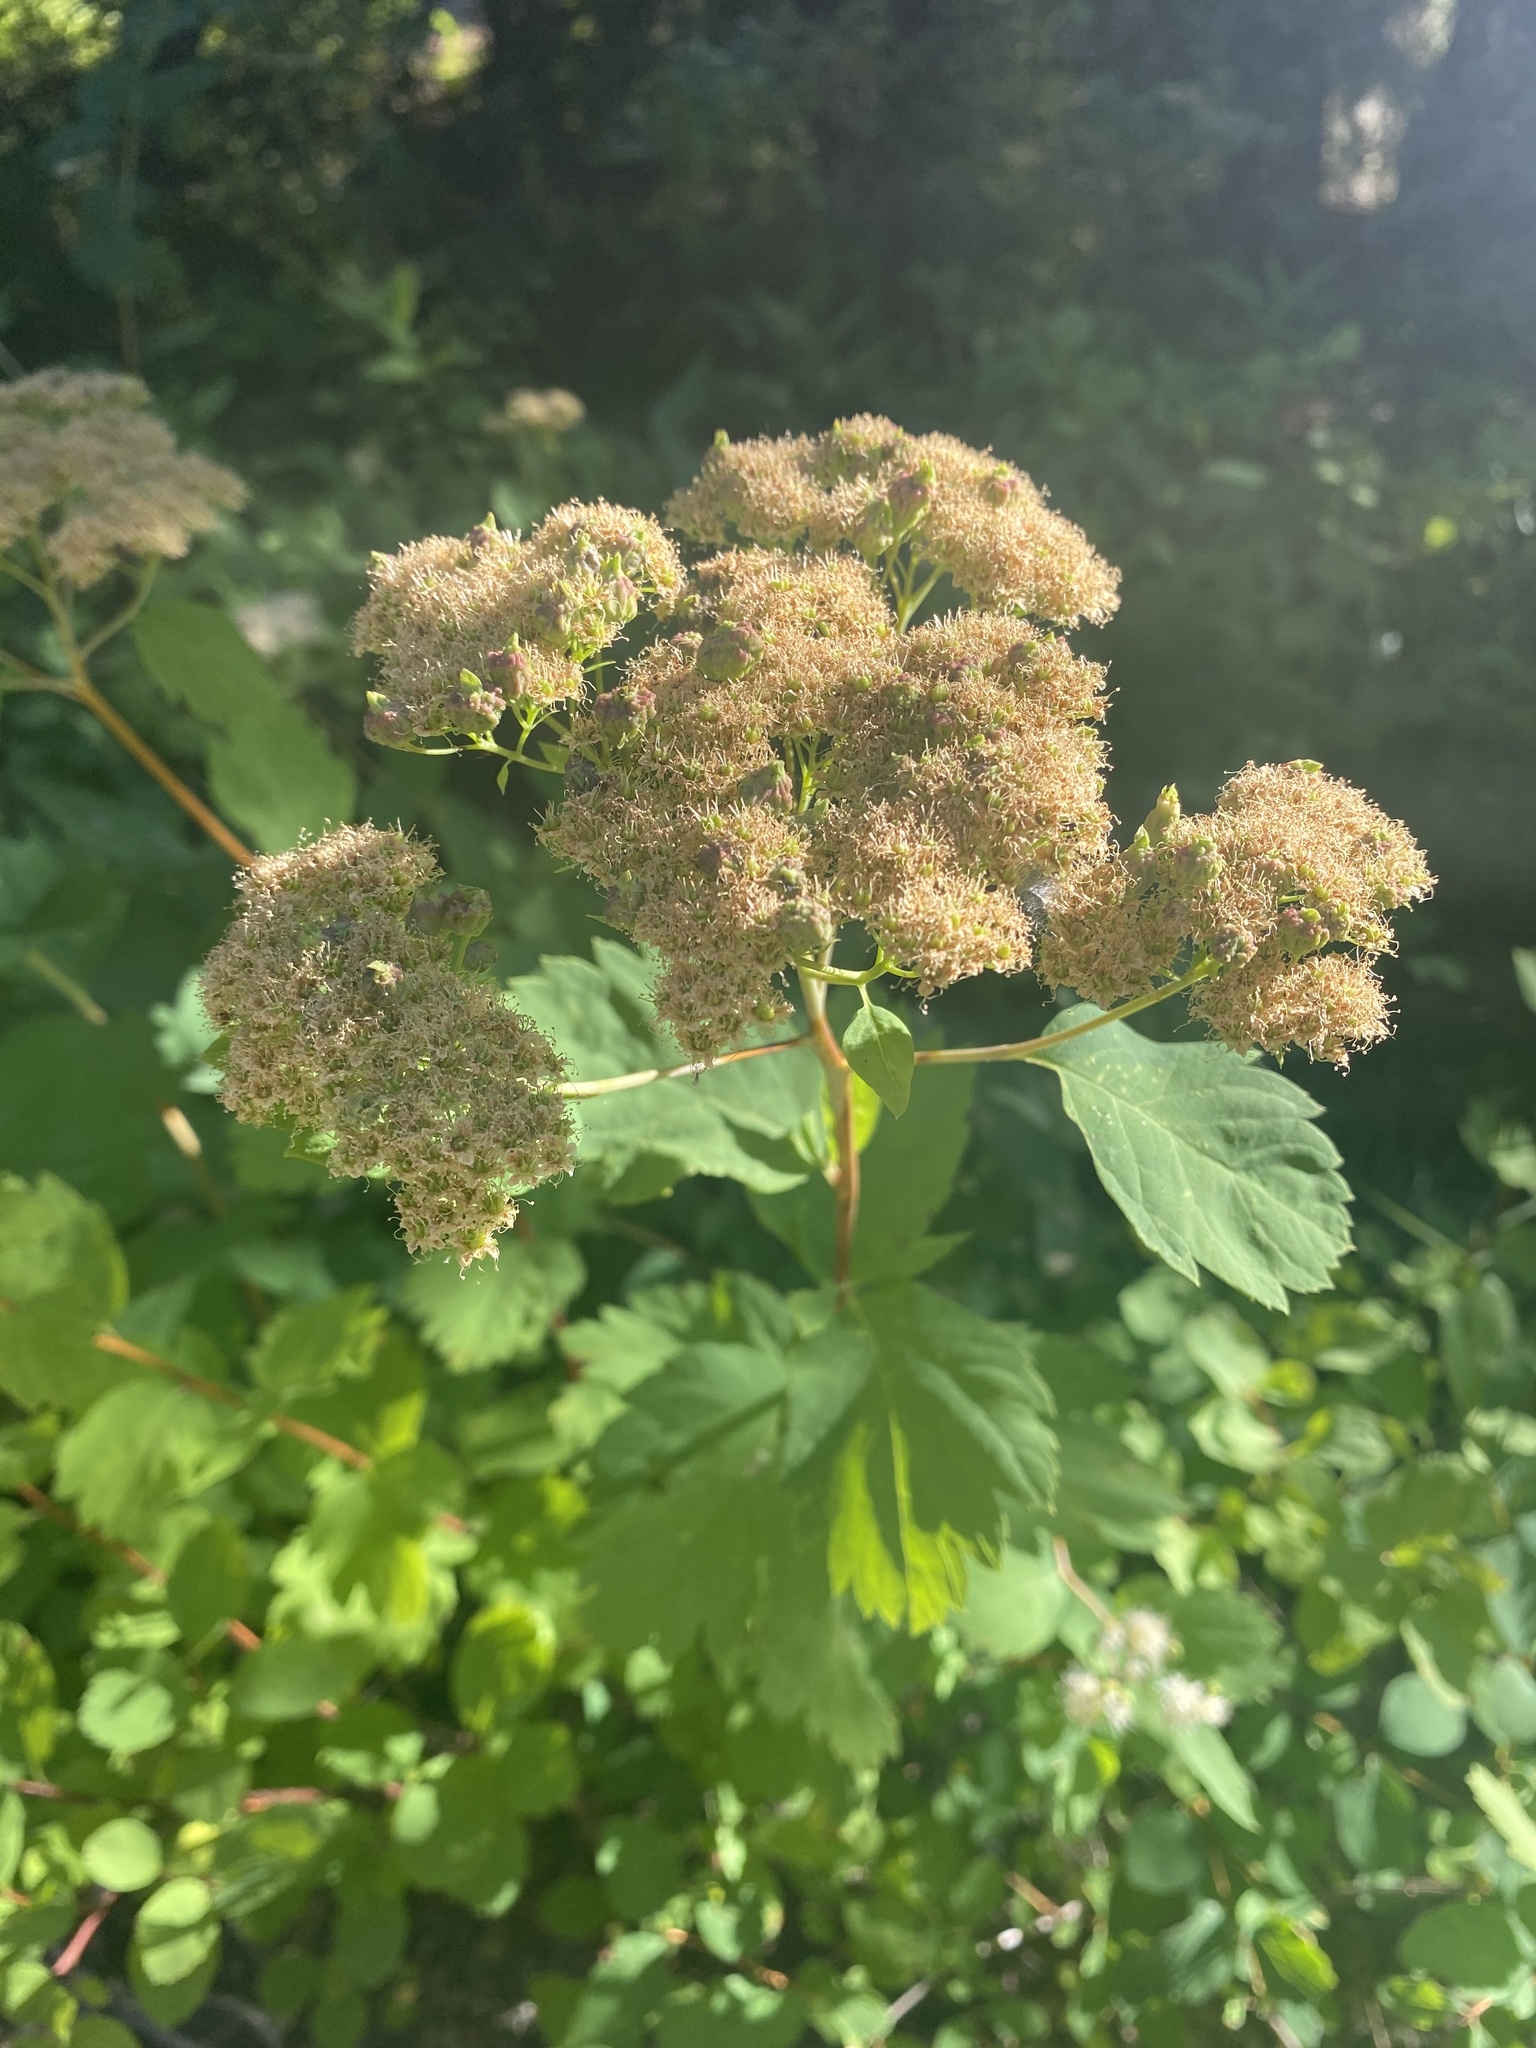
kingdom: Plantae
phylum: Tracheophyta
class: Magnoliopsida
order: Rosales
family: Rosaceae
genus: Spiraea
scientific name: Spiraea lucida
